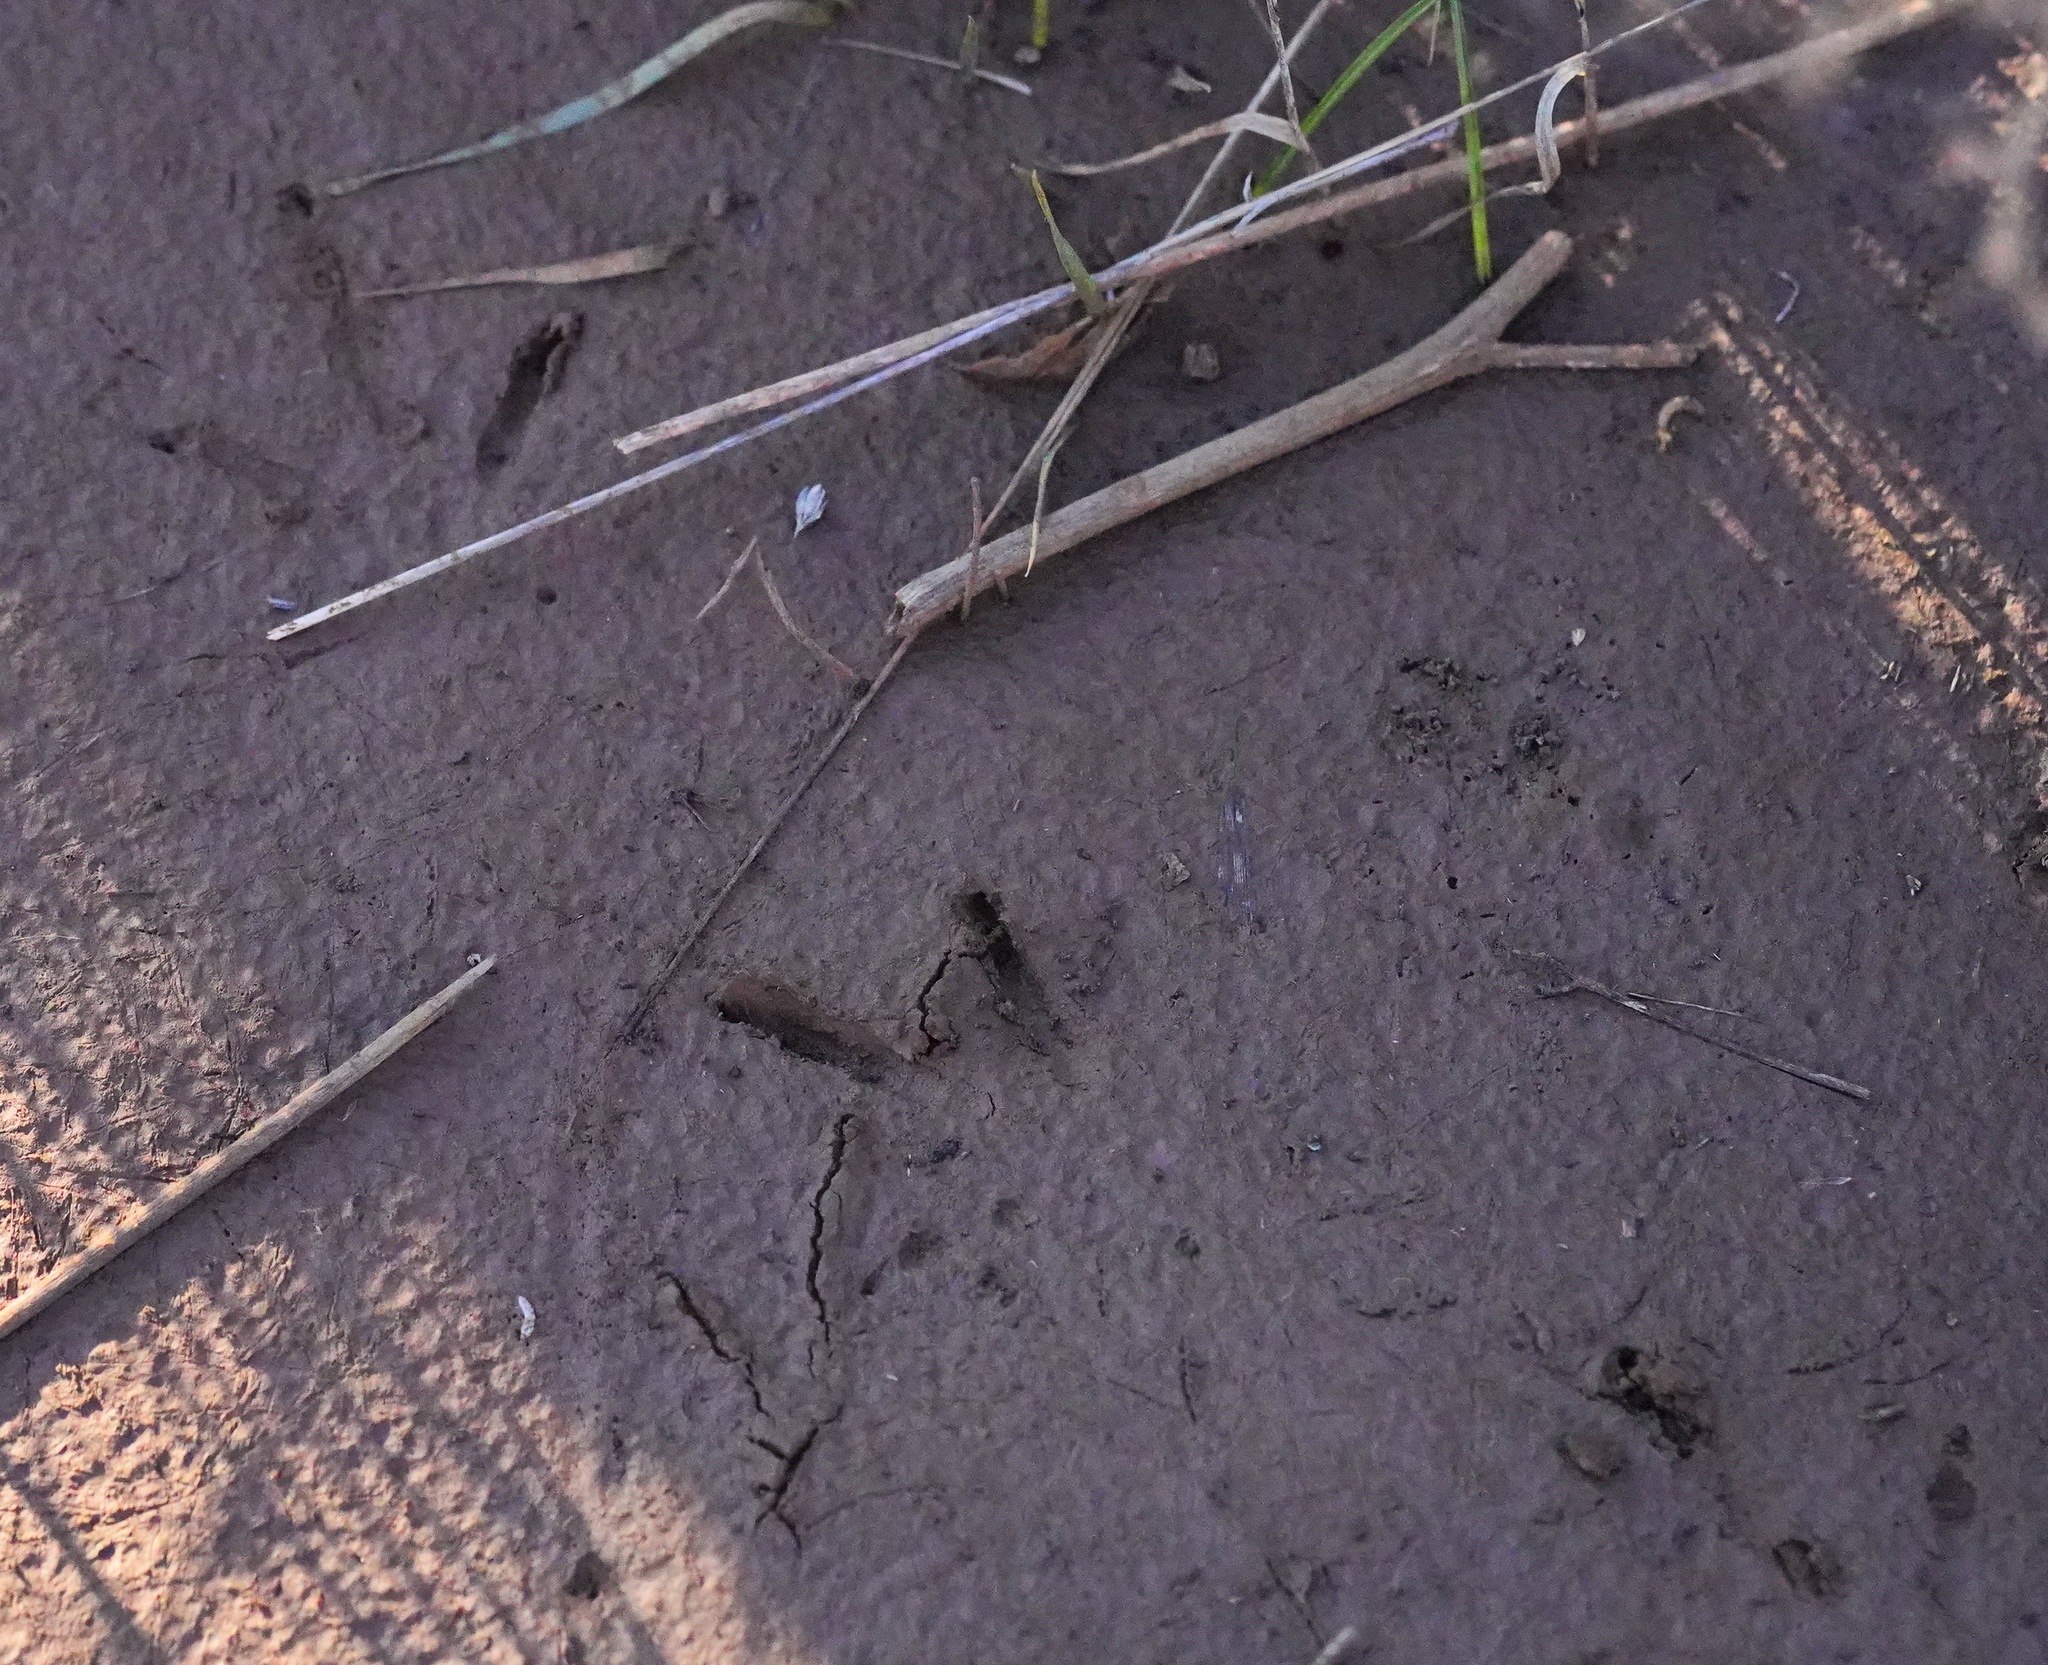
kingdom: Animalia
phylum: Chordata
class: Aves
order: Galliformes
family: Phasianidae
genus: Meleagris
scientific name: Meleagris gallopavo
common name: Wild turkey
